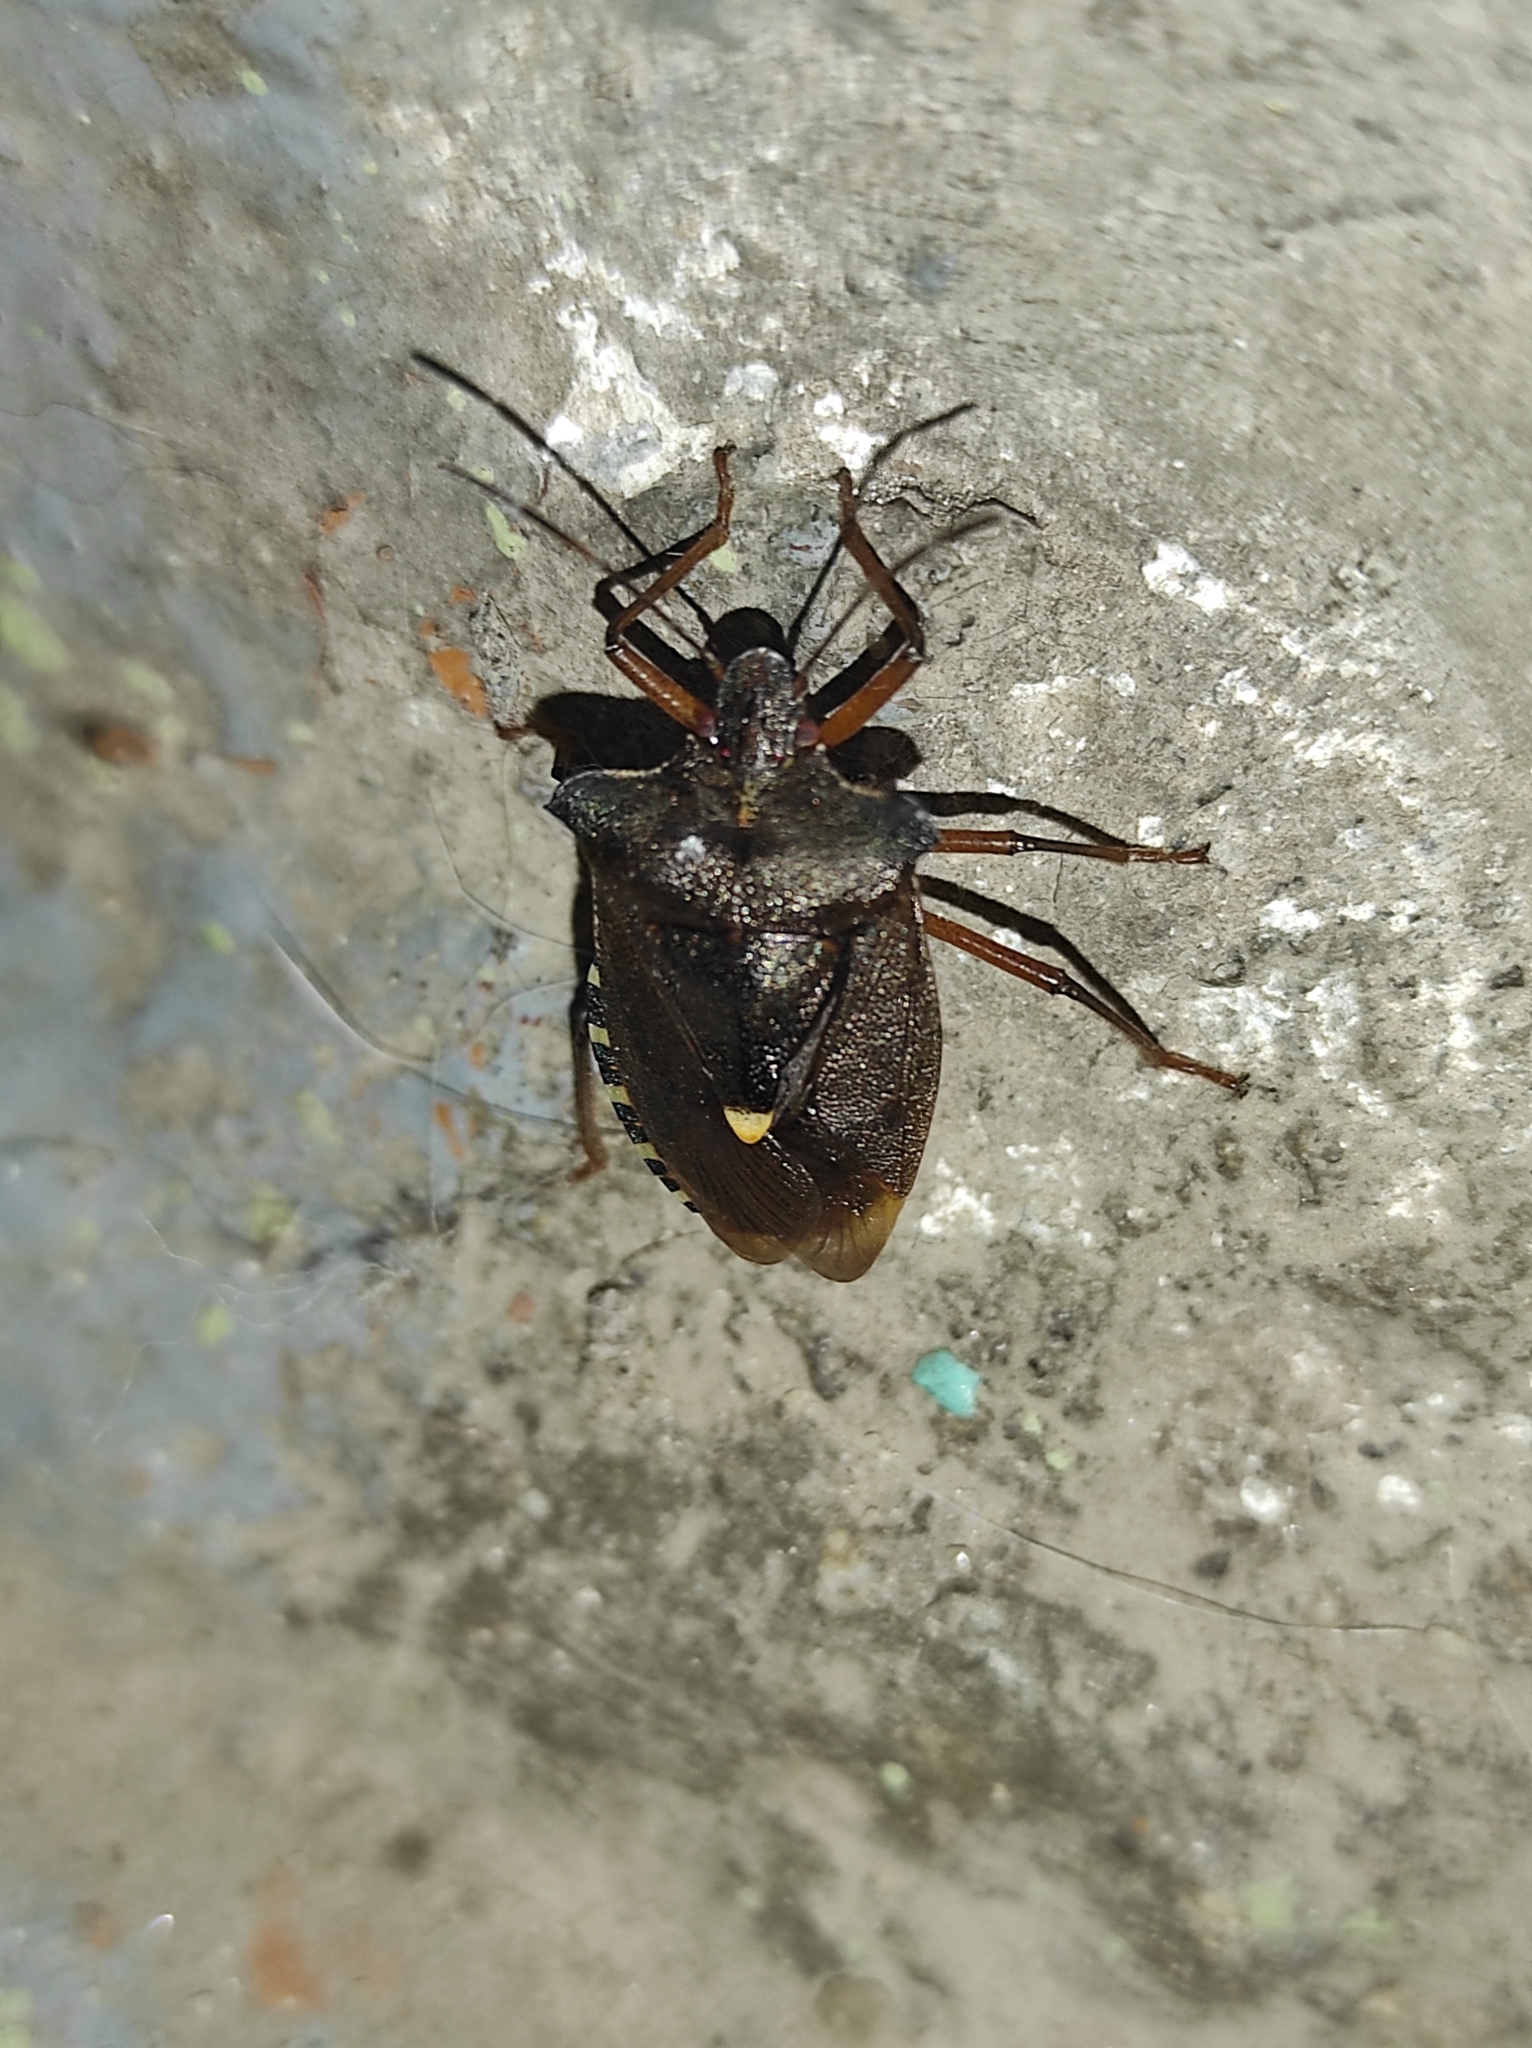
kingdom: Animalia
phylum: Arthropoda
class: Insecta
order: Hemiptera
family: Pentatomidae
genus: Pentatoma
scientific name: Pentatoma rufipes
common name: Forest bug
